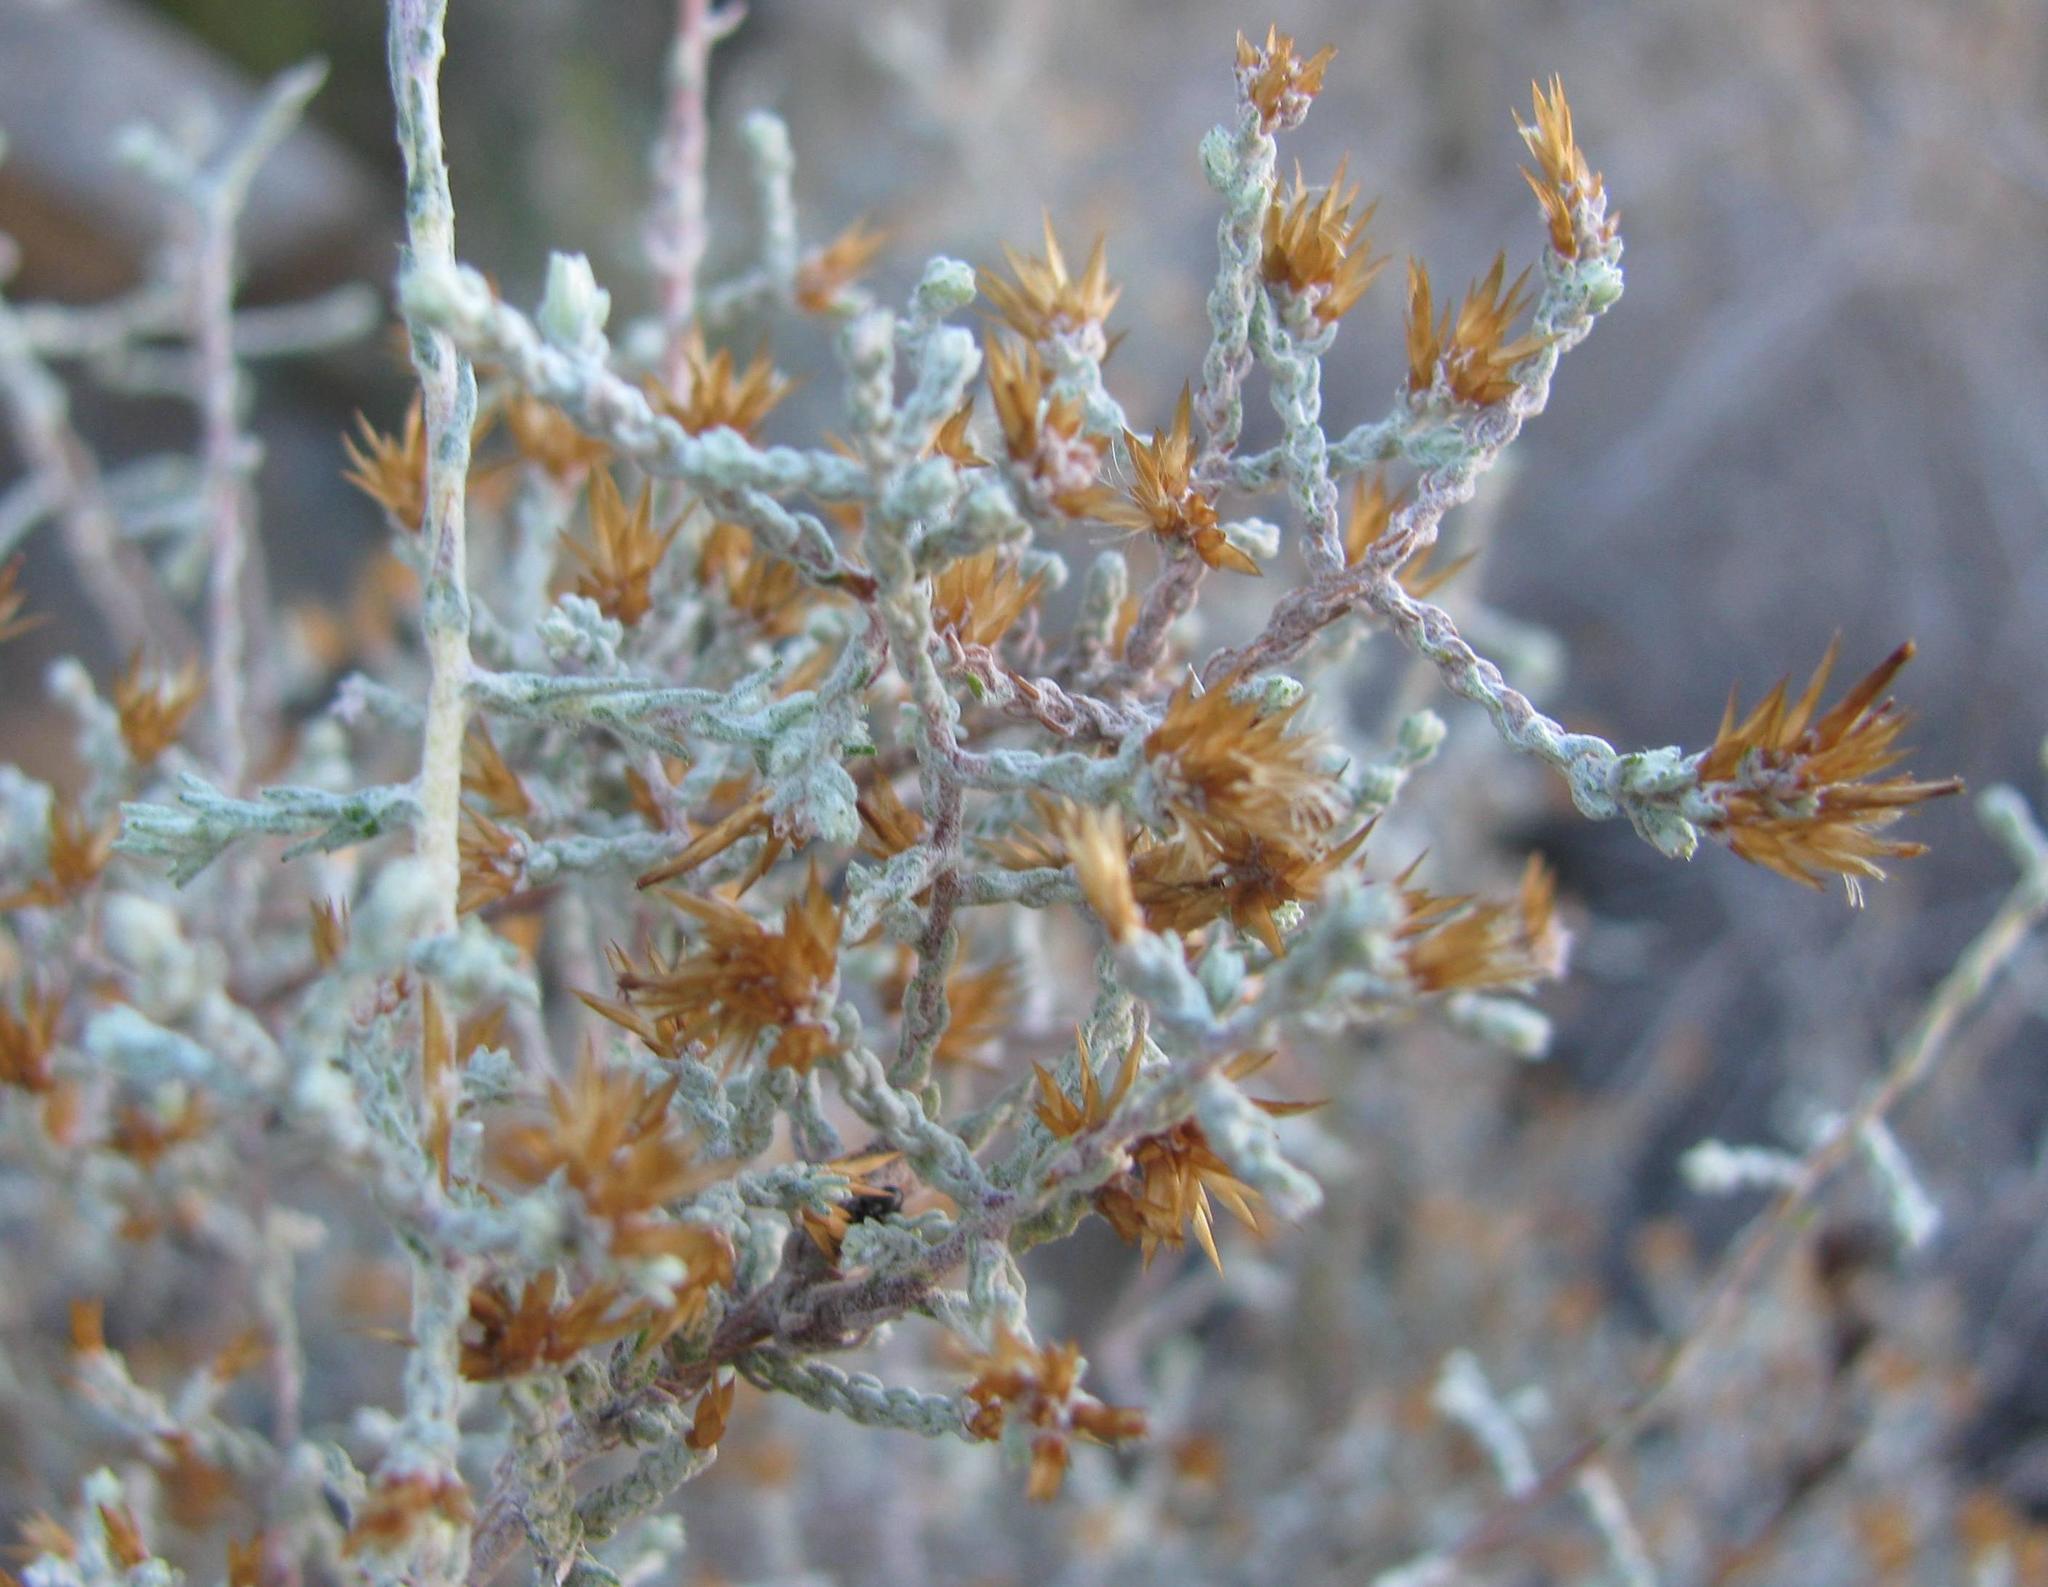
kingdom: Plantae
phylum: Tracheophyta
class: Magnoliopsida
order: Asterales
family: Asteraceae
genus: Seriphium
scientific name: Seriphium saxatilis
